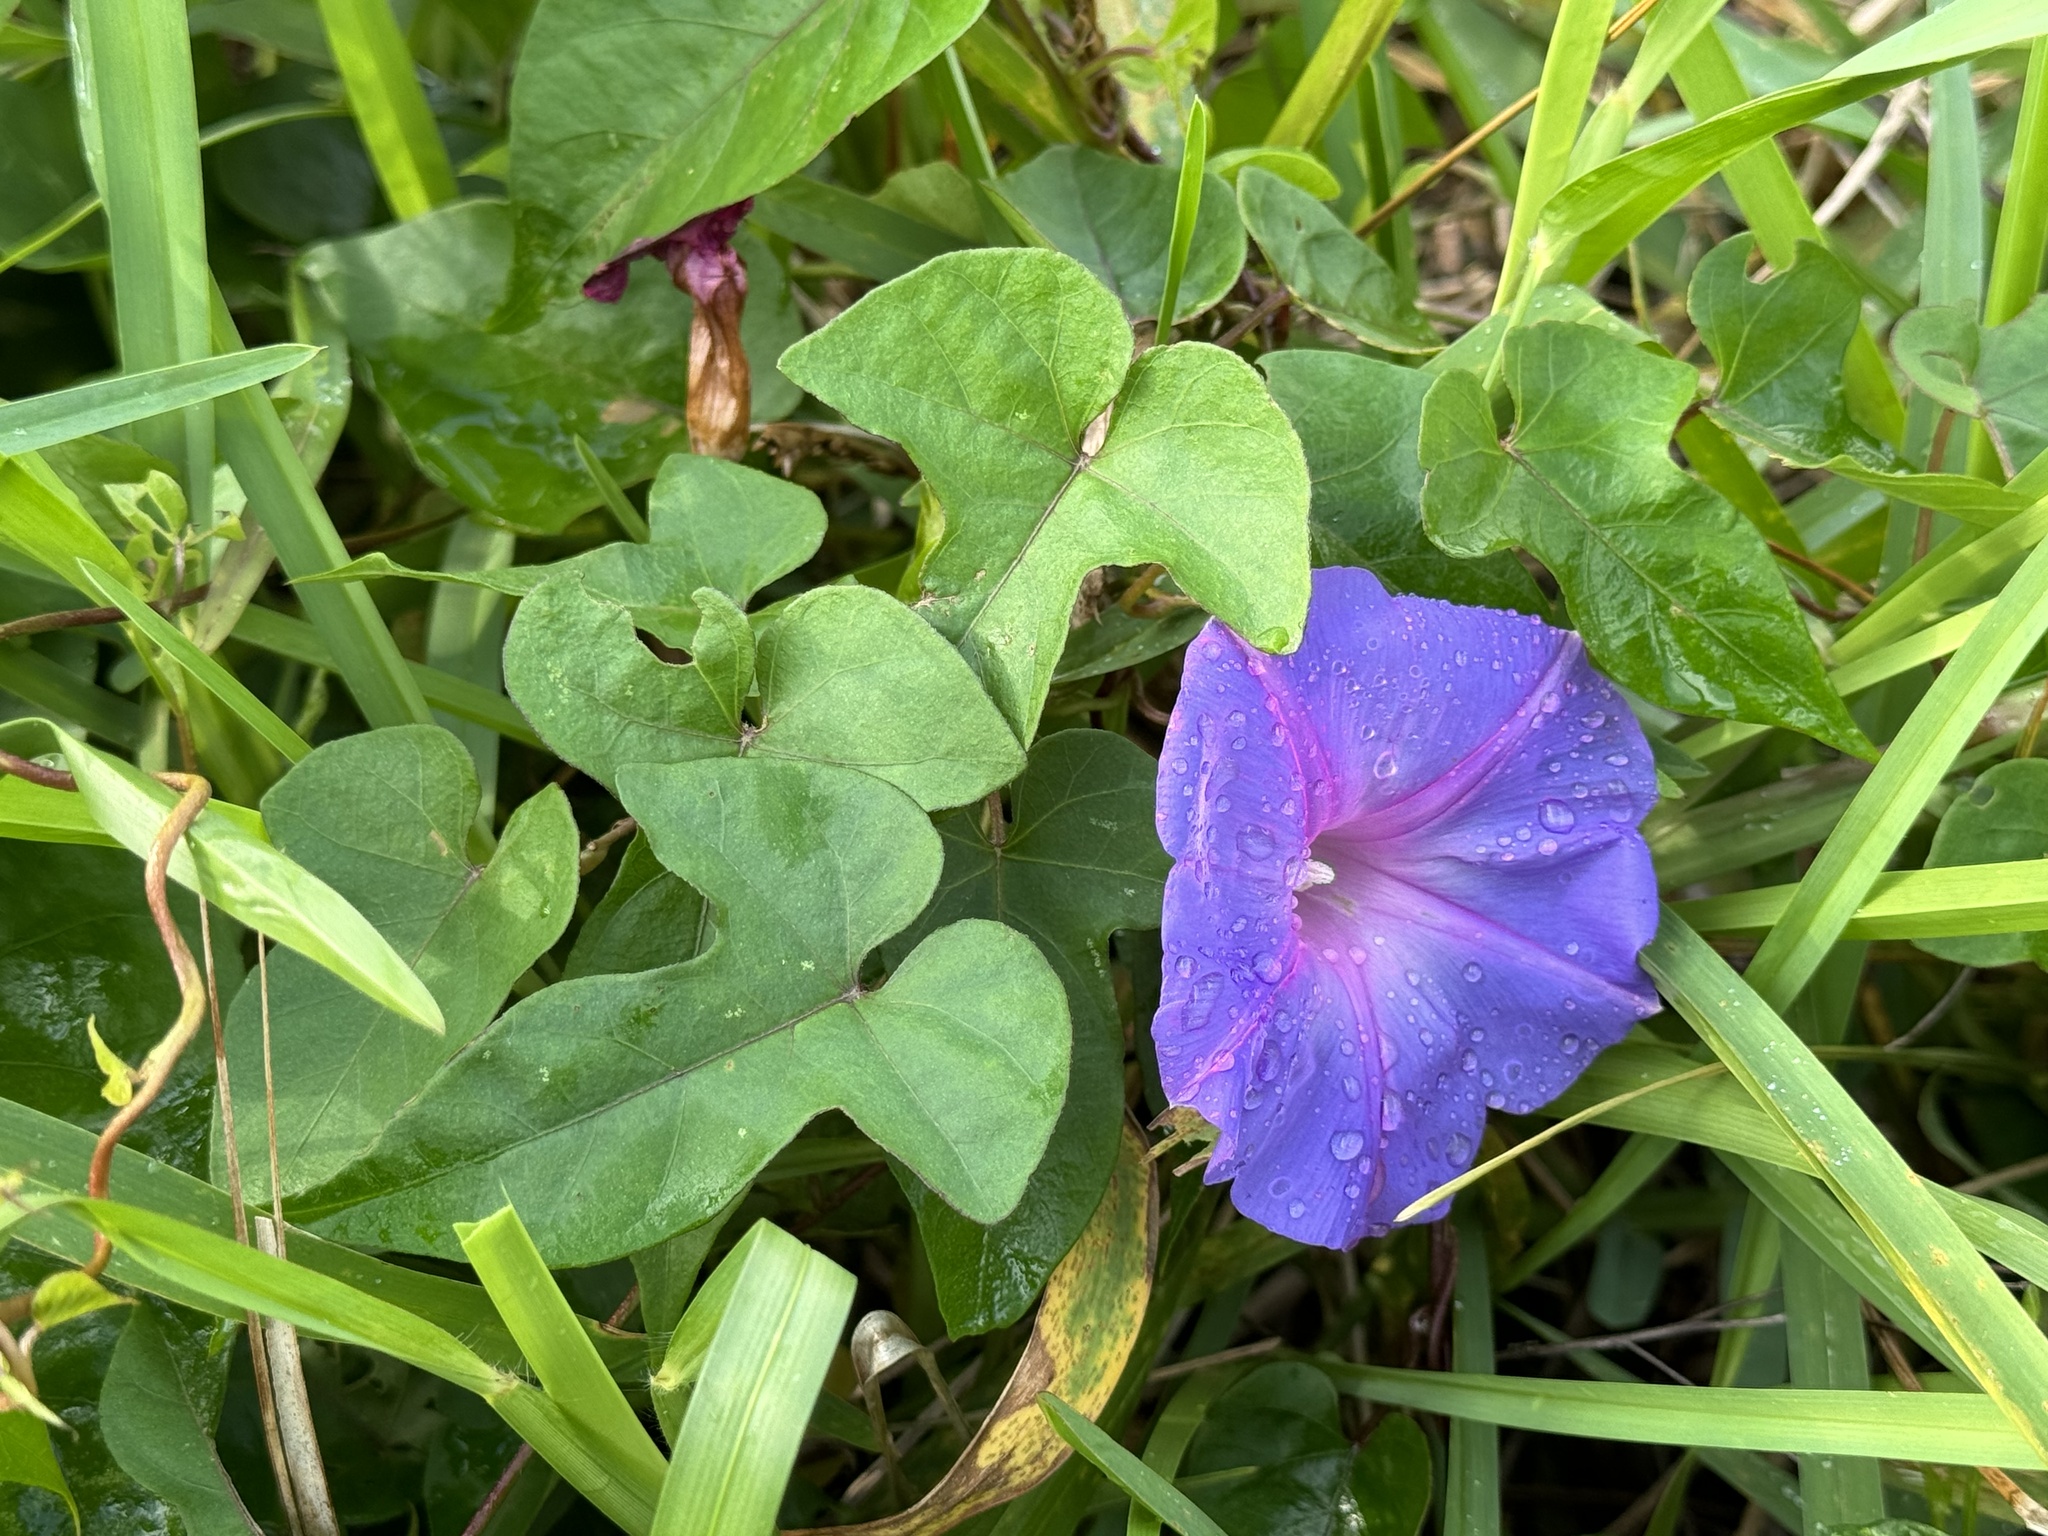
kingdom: Plantae
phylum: Tracheophyta
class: Magnoliopsida
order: Solanales
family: Convolvulaceae
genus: Ipomoea
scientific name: Ipomoea indica
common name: Blue dawnflower
